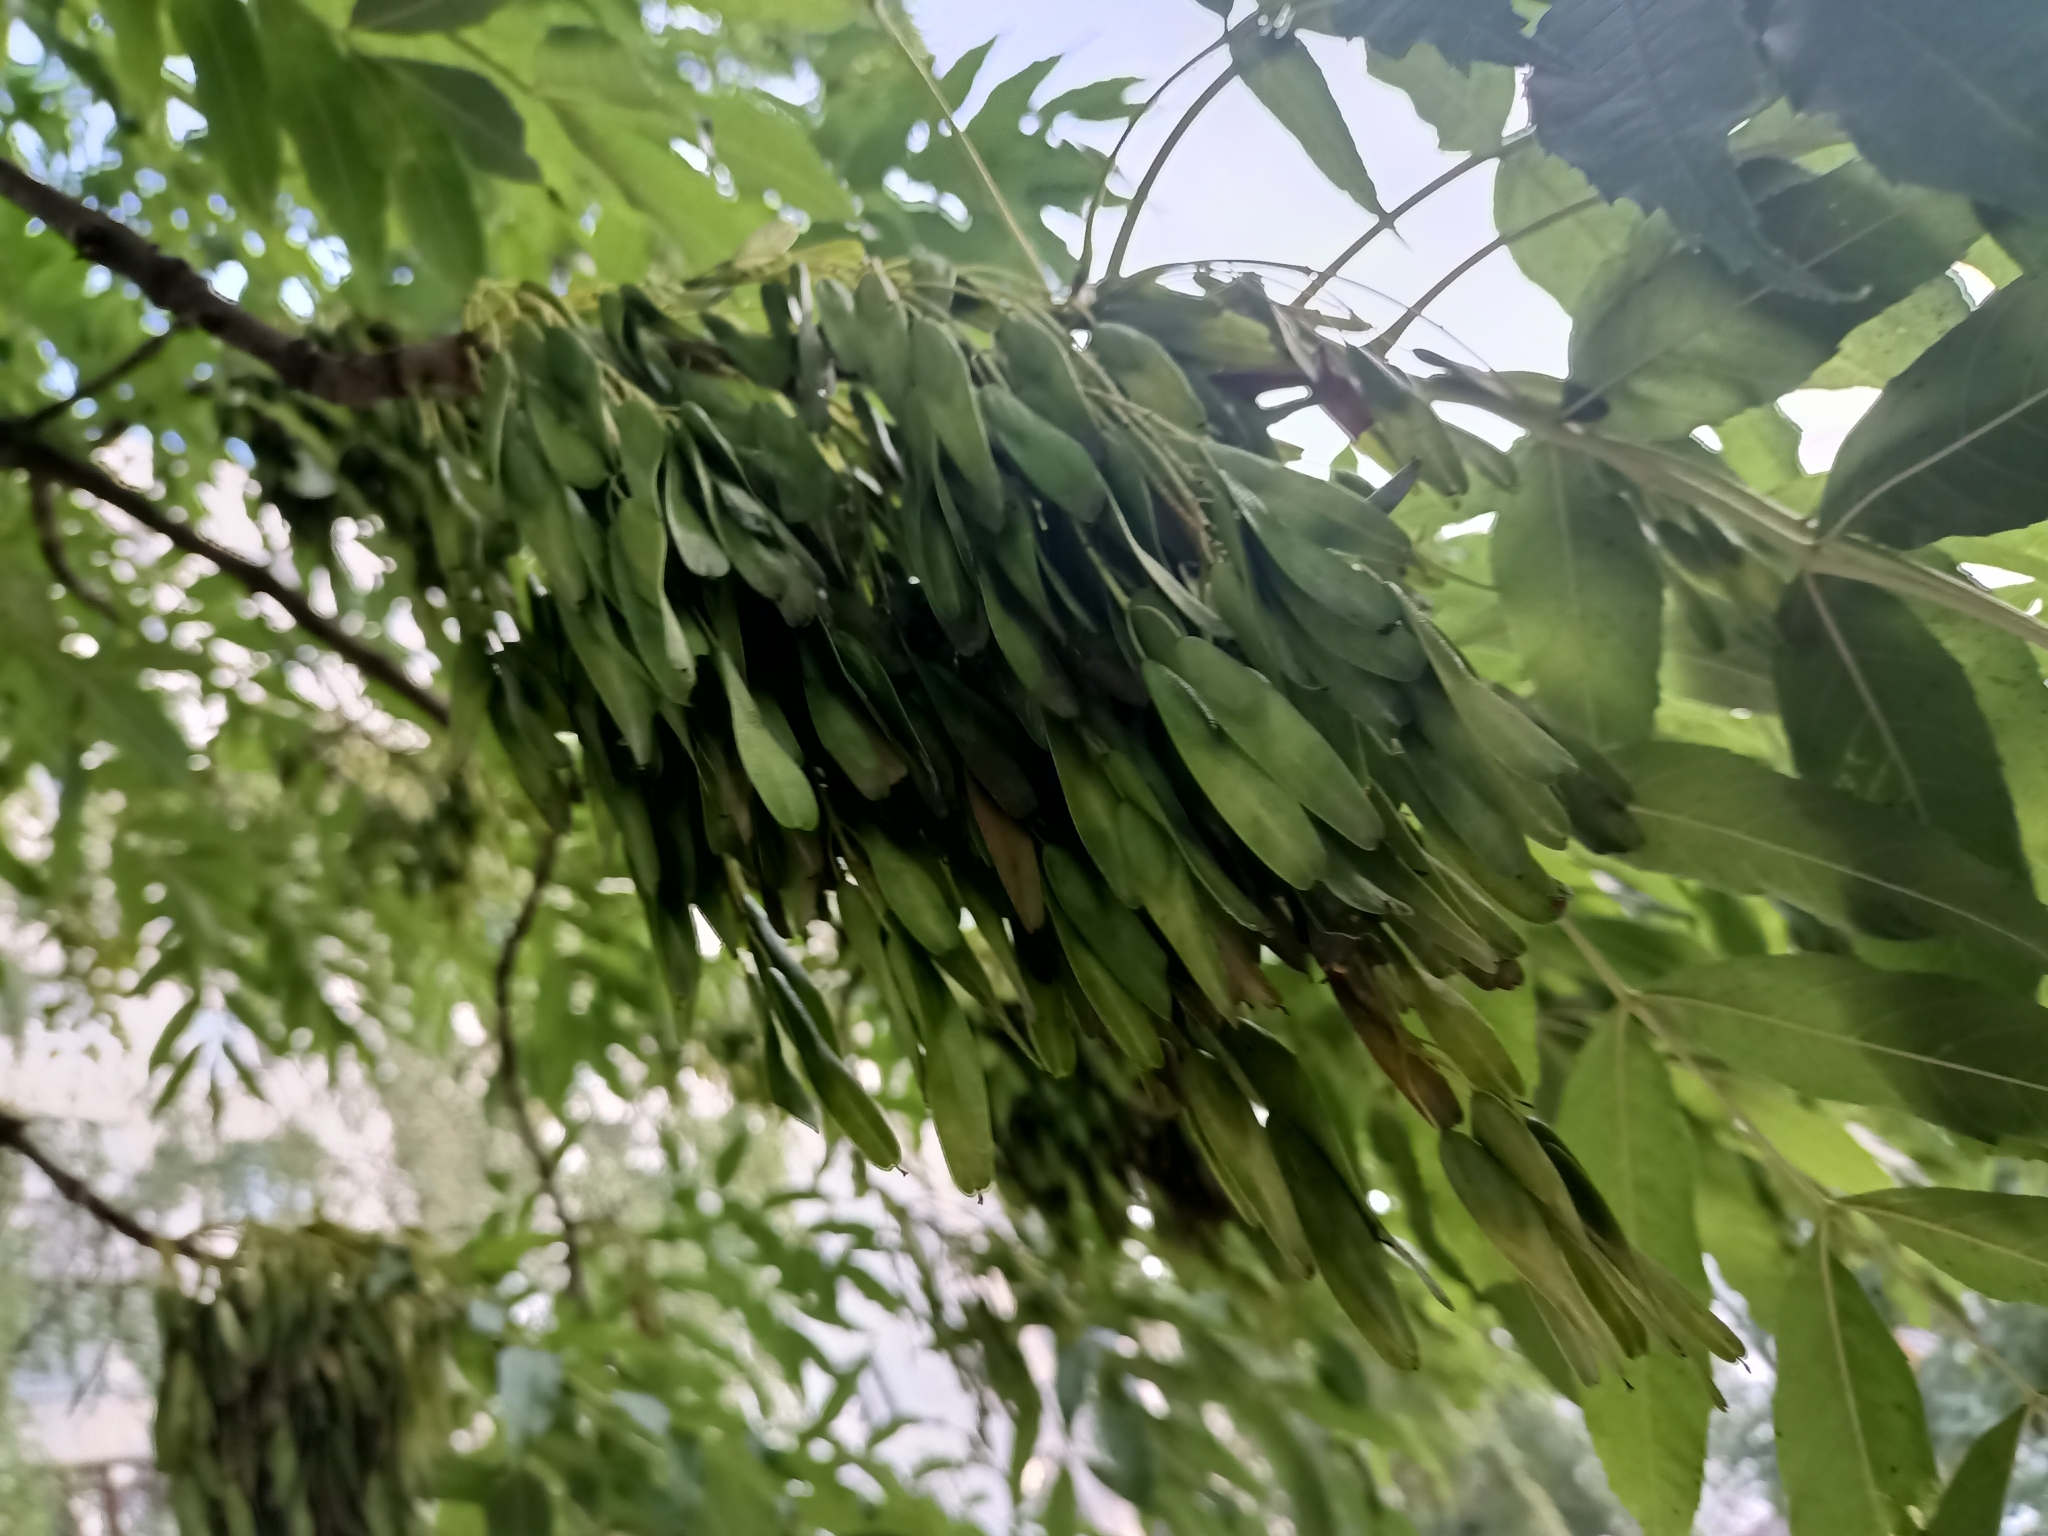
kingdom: Plantae
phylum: Tracheophyta
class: Magnoliopsida
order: Lamiales
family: Oleaceae
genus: Fraxinus
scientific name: Fraxinus excelsior
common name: European ash
